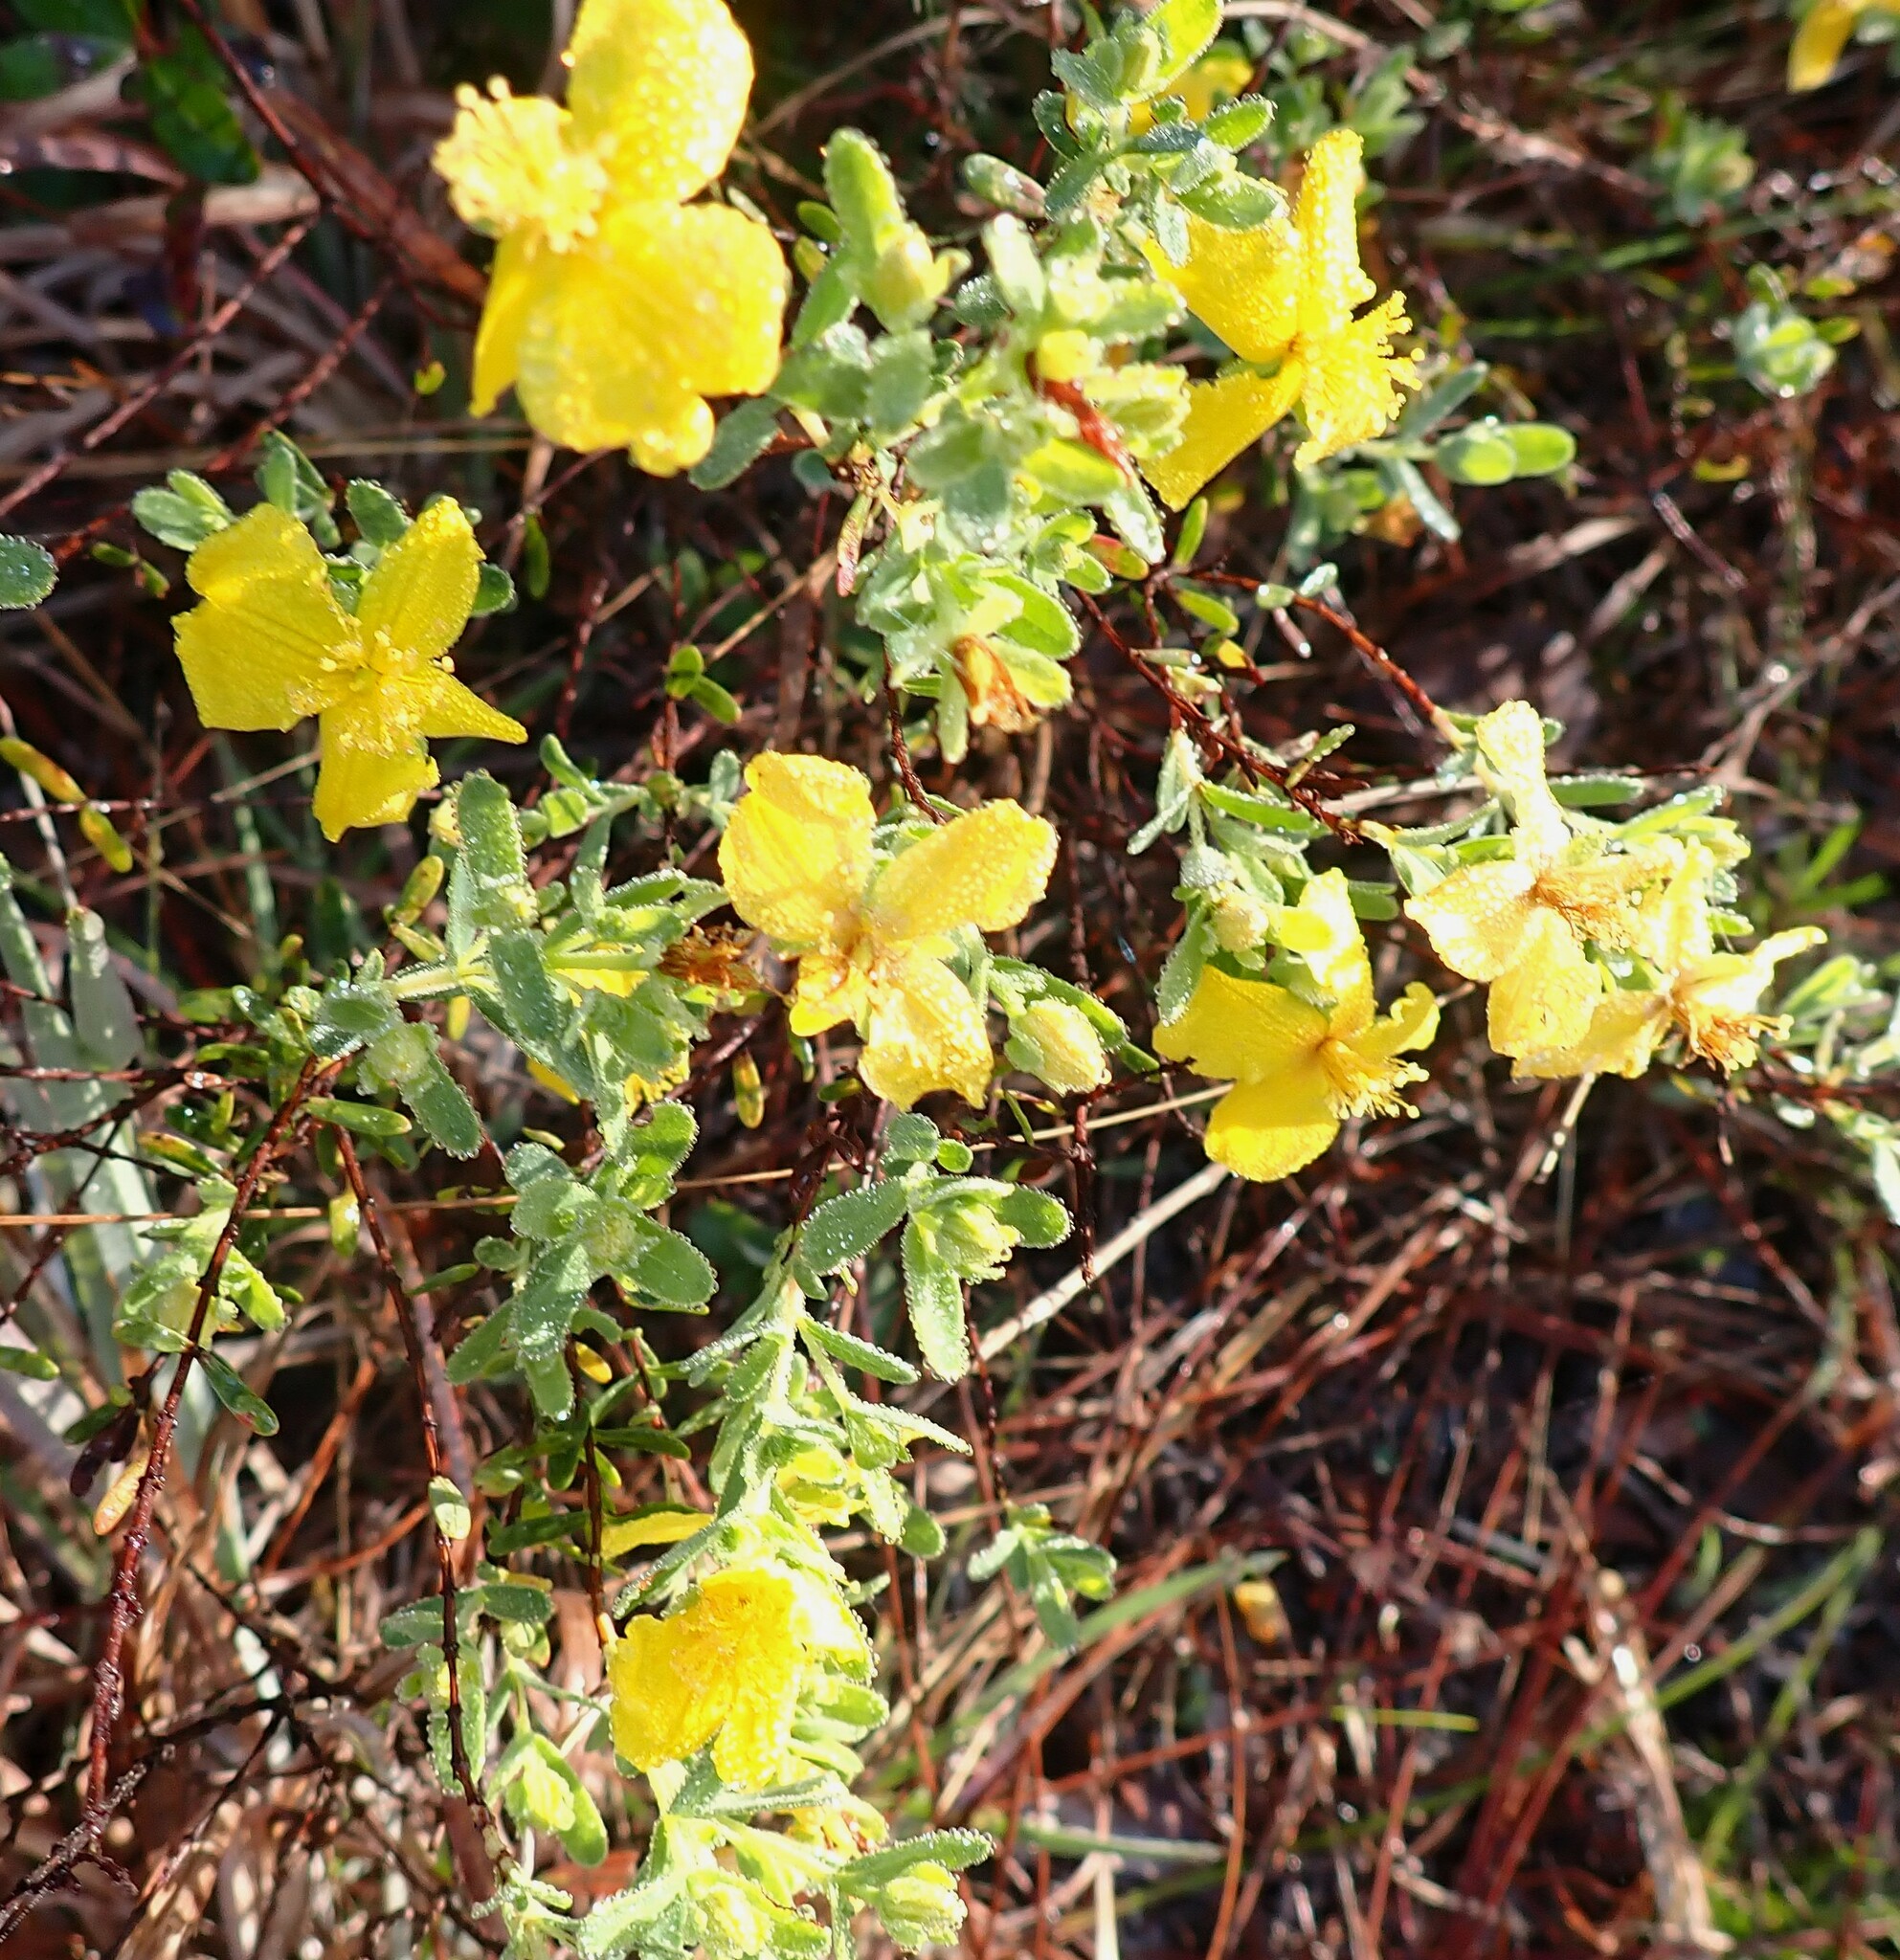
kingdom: Plantae
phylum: Tracheophyta
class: Magnoliopsida
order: Malpighiales
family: Hypericaceae
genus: Hypericum
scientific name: Hypericum microsepalum
